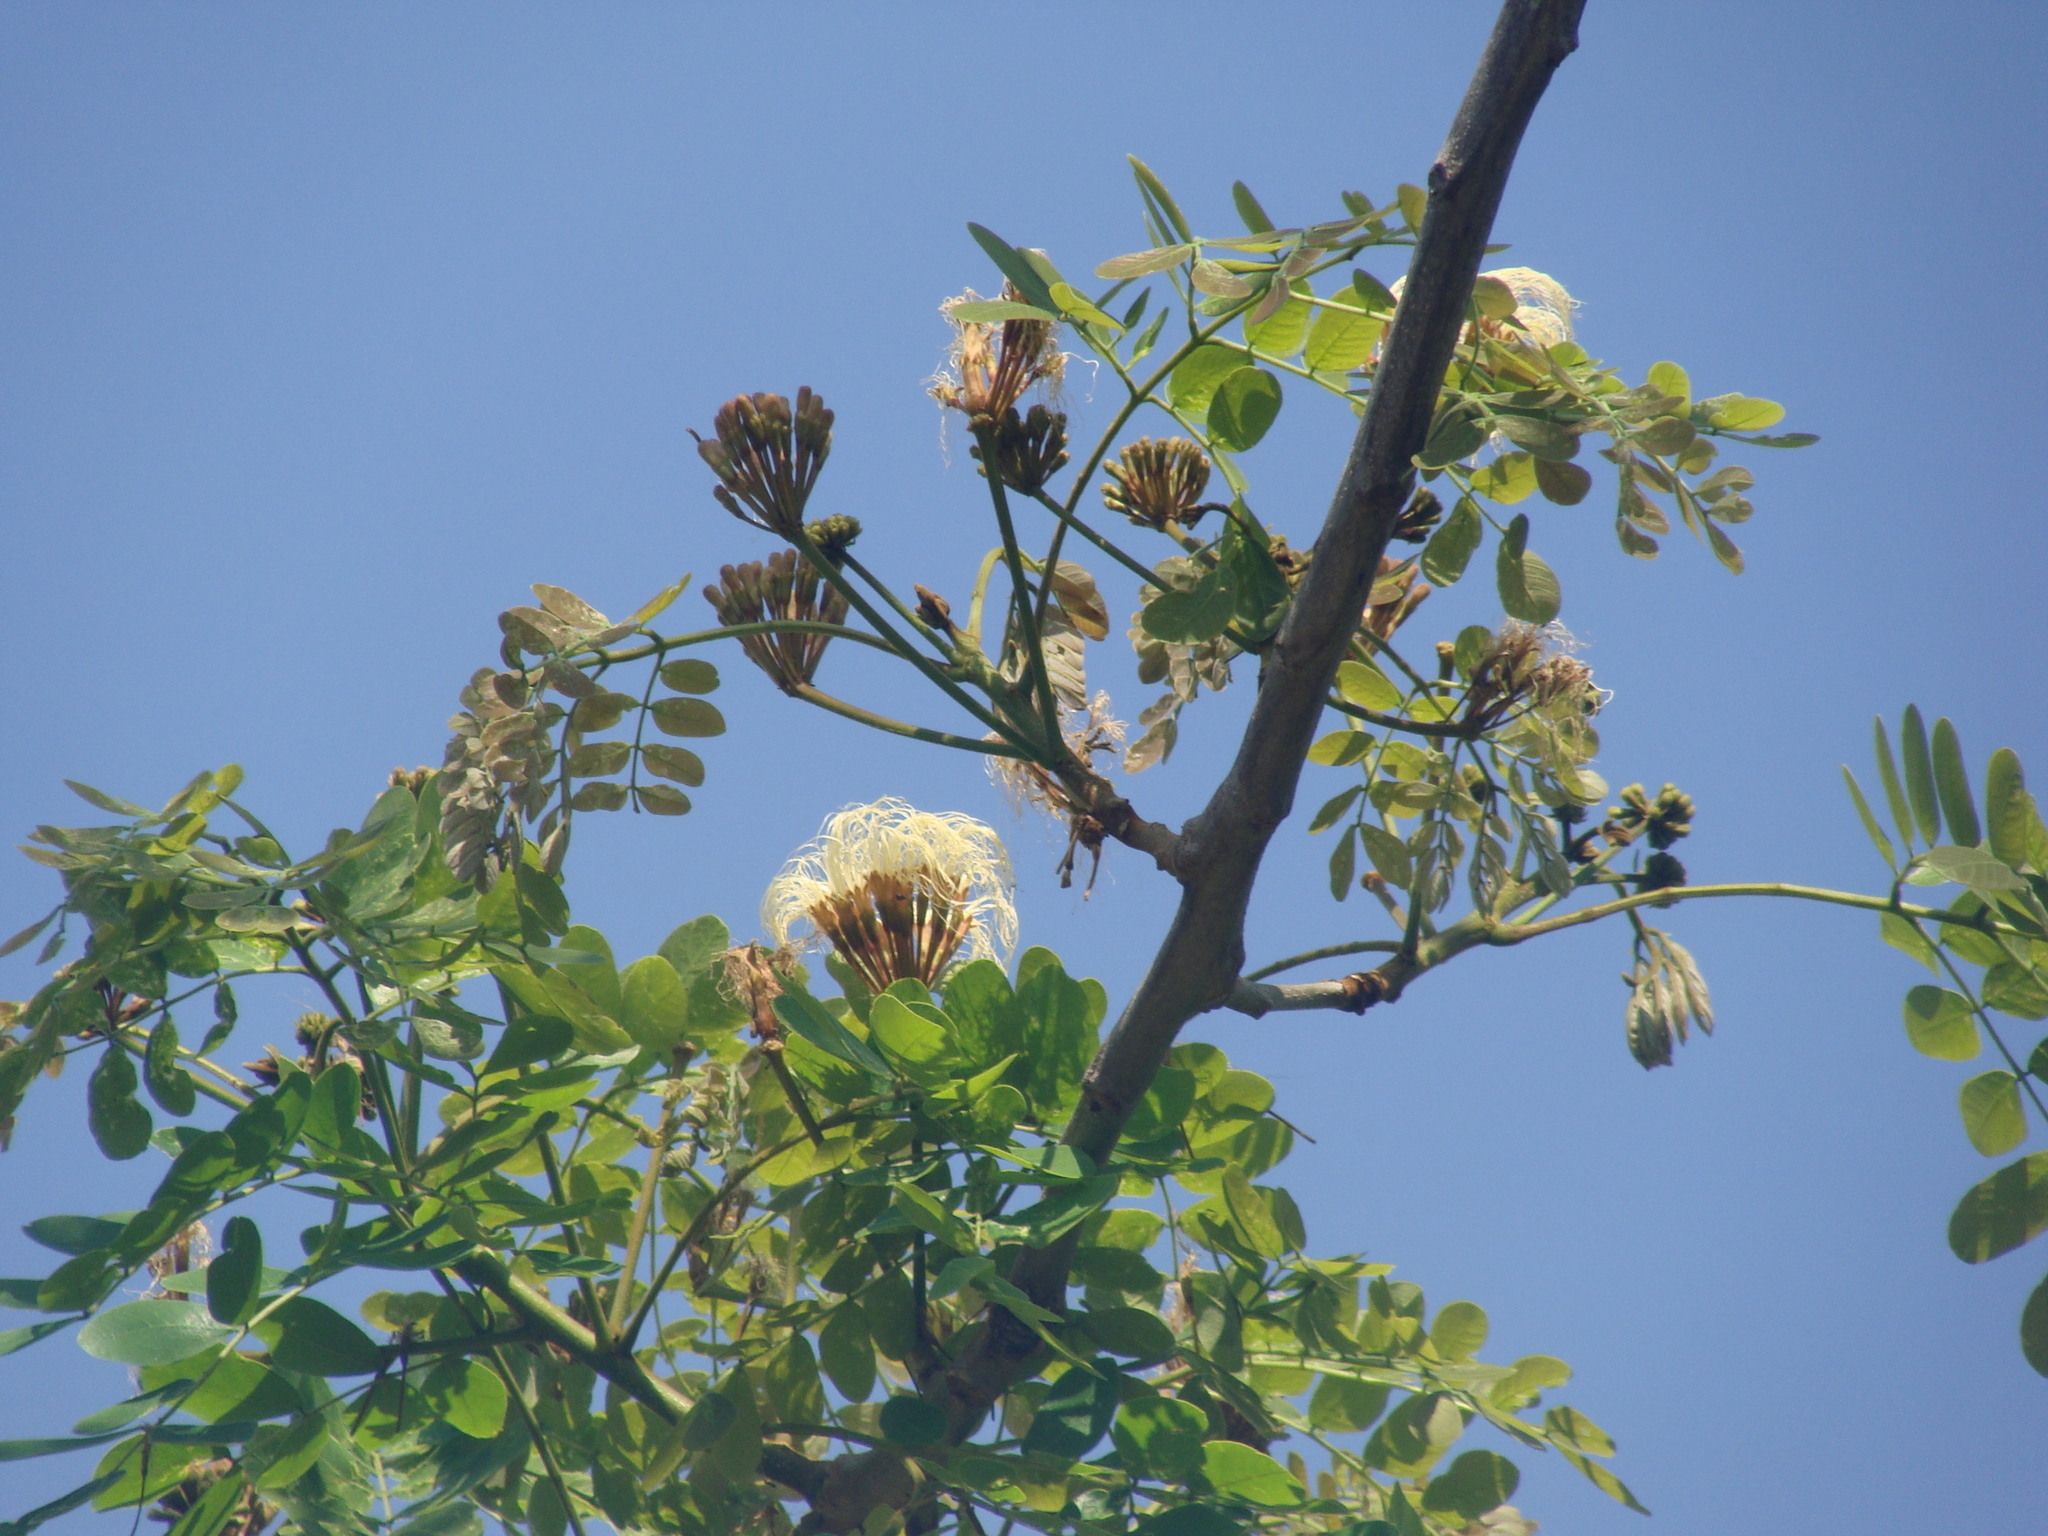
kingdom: Plantae
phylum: Tracheophyta
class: Magnoliopsida
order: Fabales
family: Fabaceae
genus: Balizia
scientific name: Balizia leucocalyx
